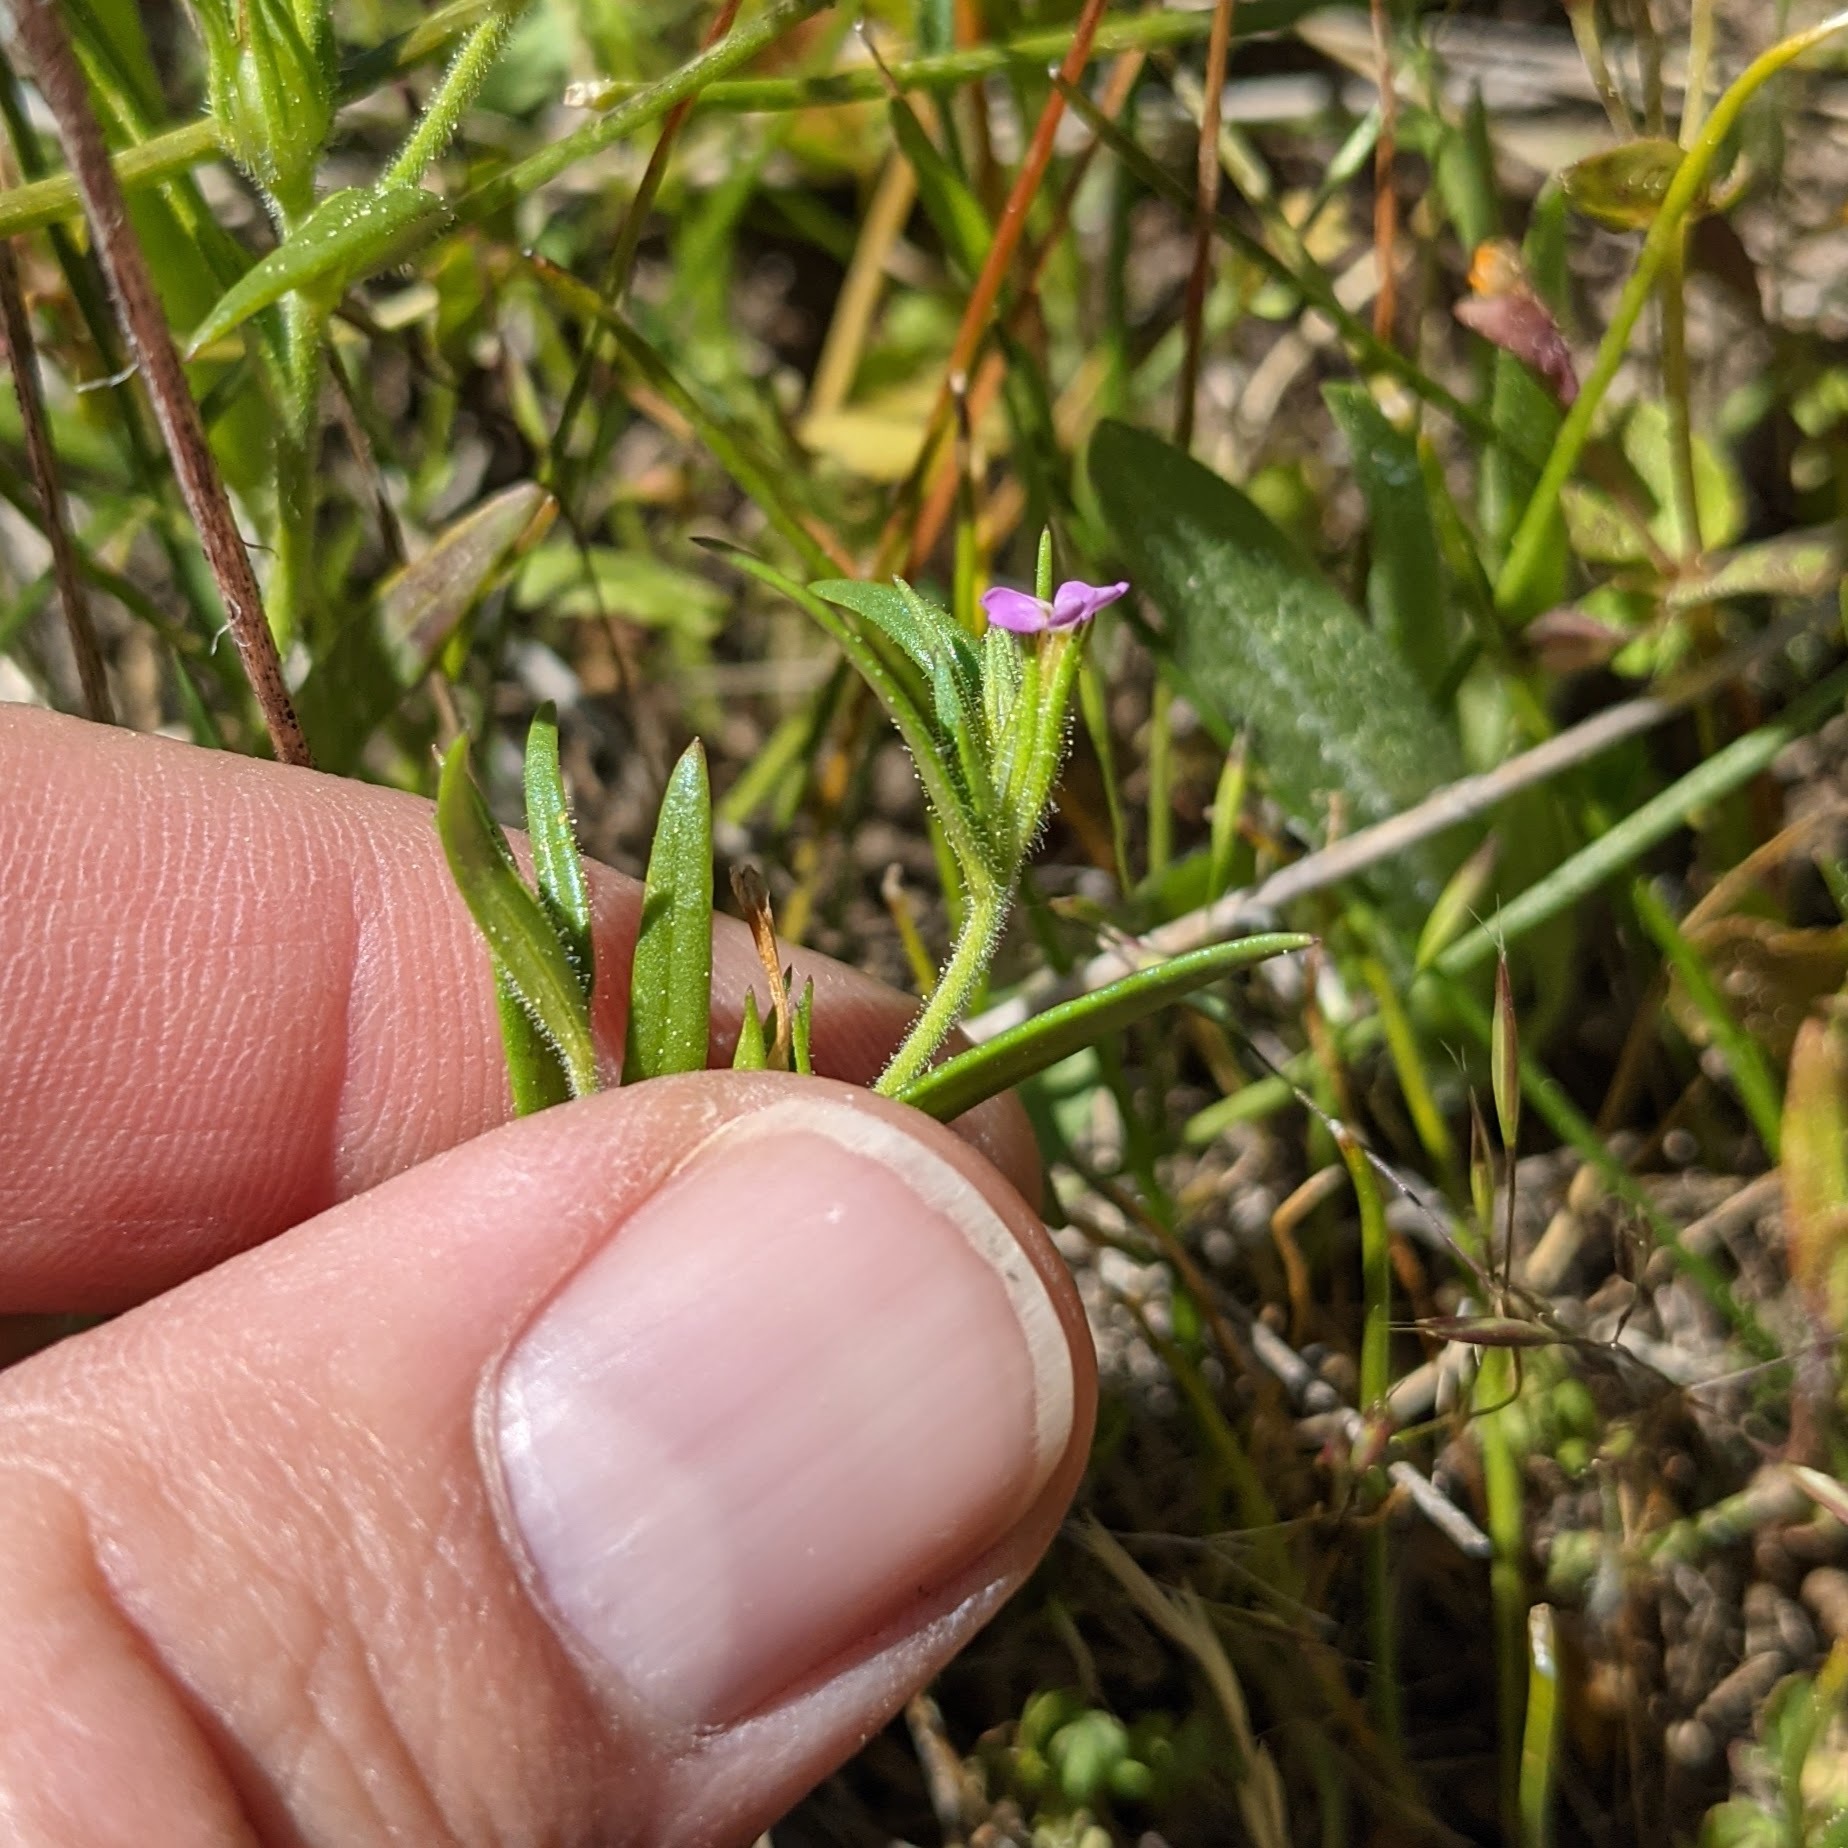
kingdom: Plantae
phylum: Tracheophyta
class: Magnoliopsida
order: Ericales
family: Polemoniaceae
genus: Phlox
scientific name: Phlox gracilis
